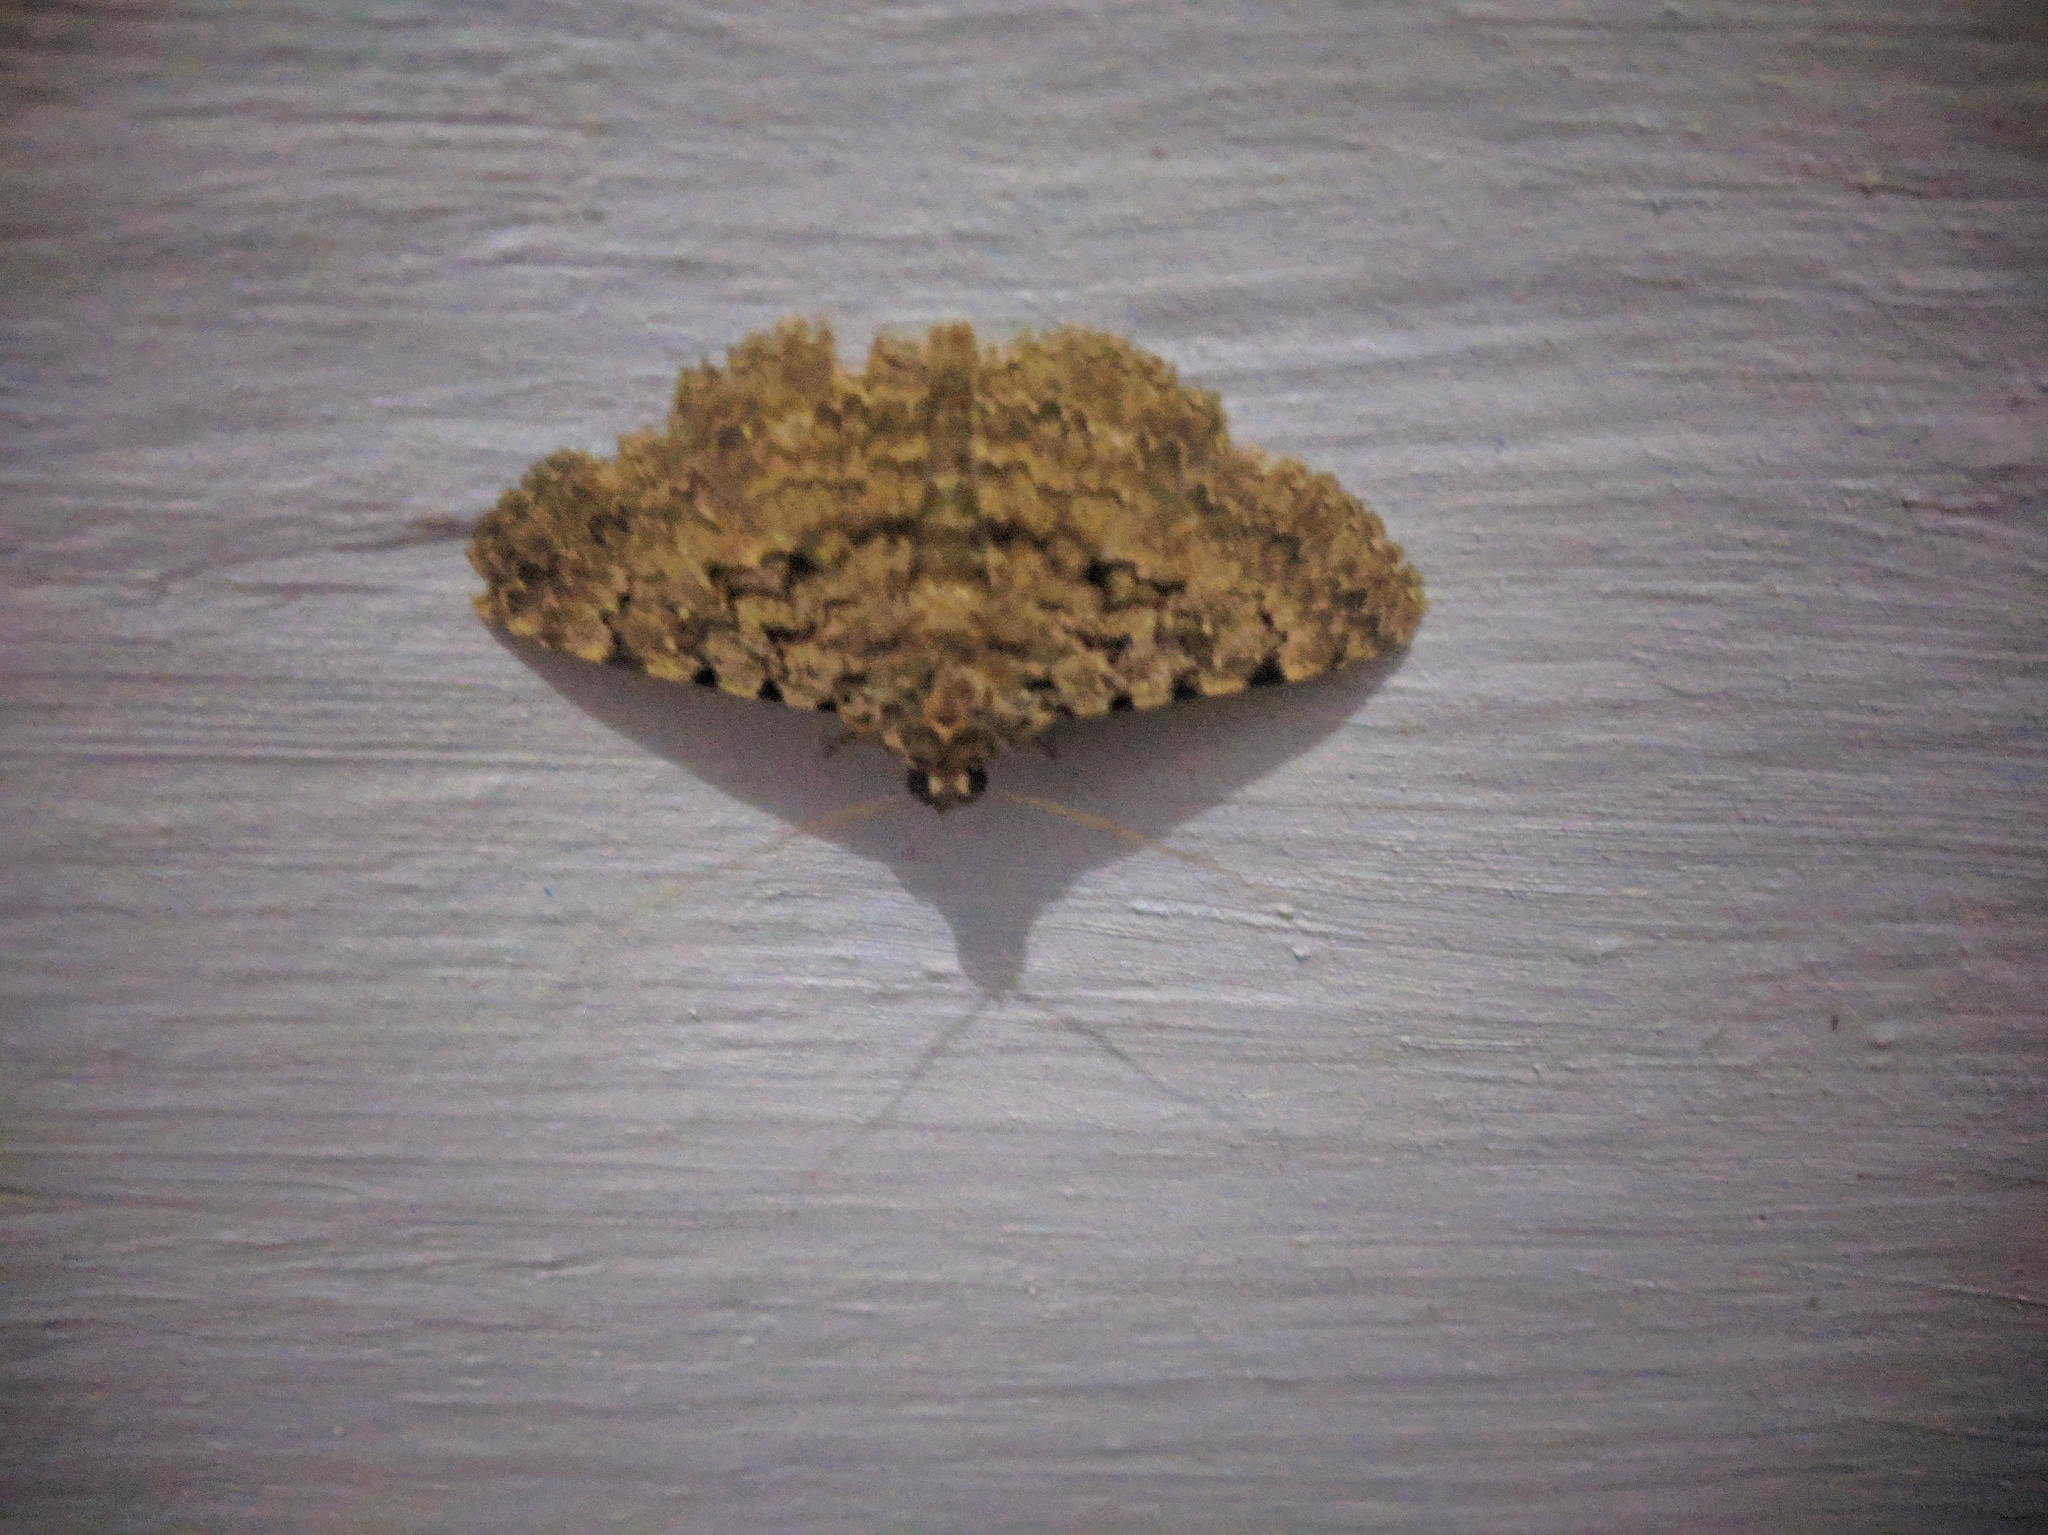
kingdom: Animalia
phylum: Arthropoda
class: Insecta
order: Lepidoptera
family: Erebidae
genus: Polydesma
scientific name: Polydesma boarmoides
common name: Moth
